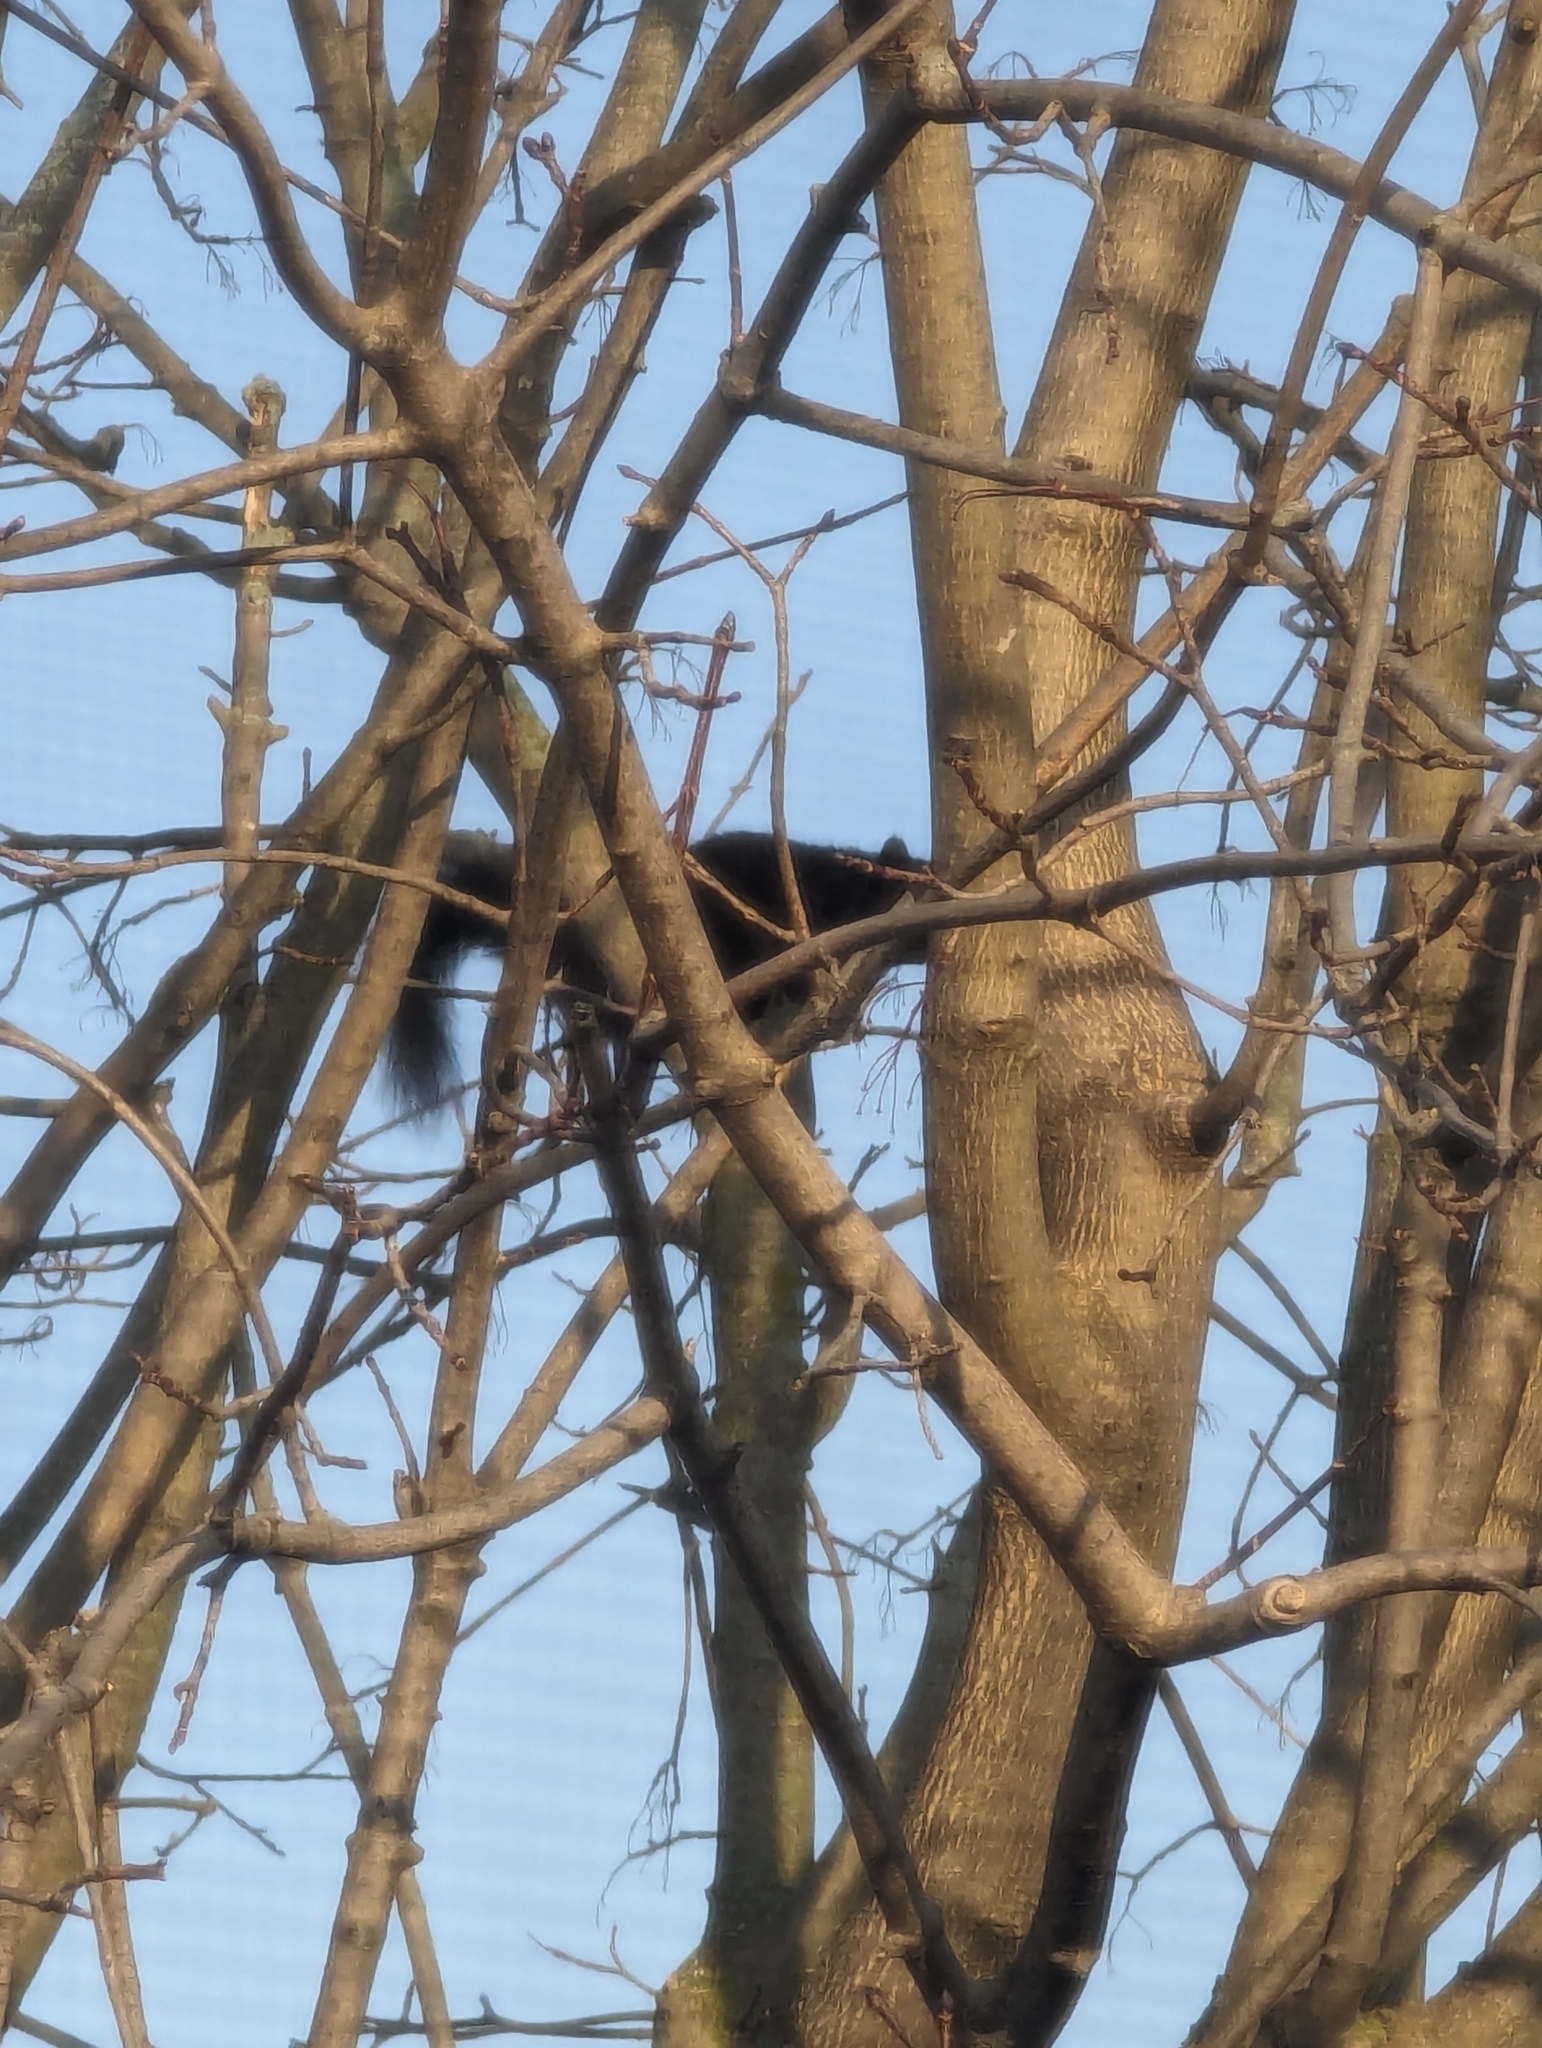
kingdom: Animalia
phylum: Chordata
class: Mammalia
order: Rodentia
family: Sciuridae
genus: Sciurus
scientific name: Sciurus carolinensis
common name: Eastern gray squirrel
